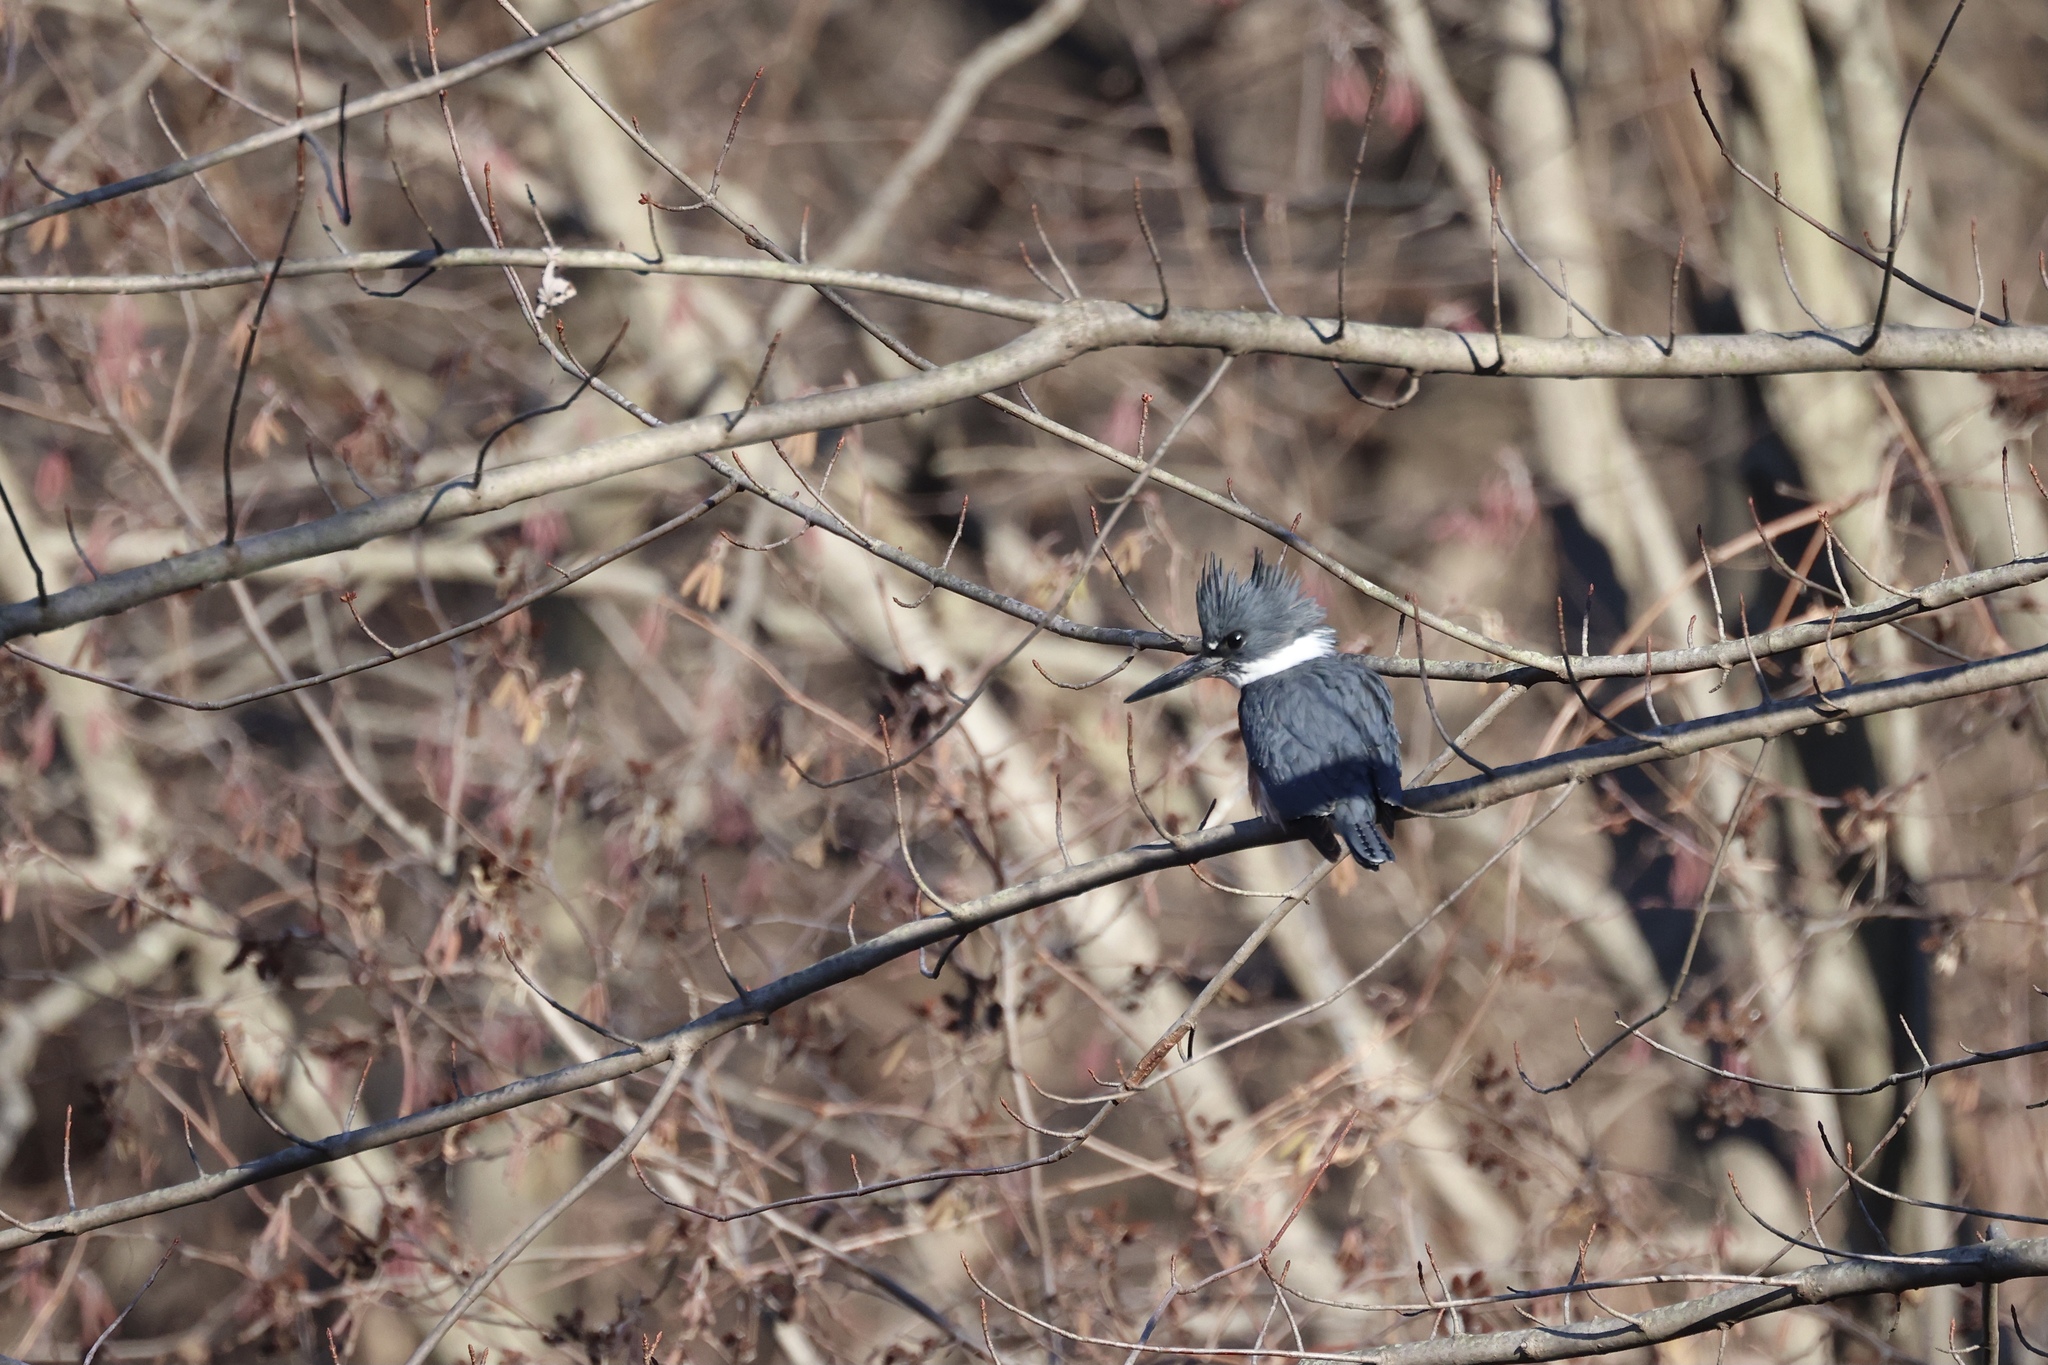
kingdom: Animalia
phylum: Chordata
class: Aves
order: Coraciiformes
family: Alcedinidae
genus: Megaceryle
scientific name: Megaceryle alcyon
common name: Belted kingfisher
